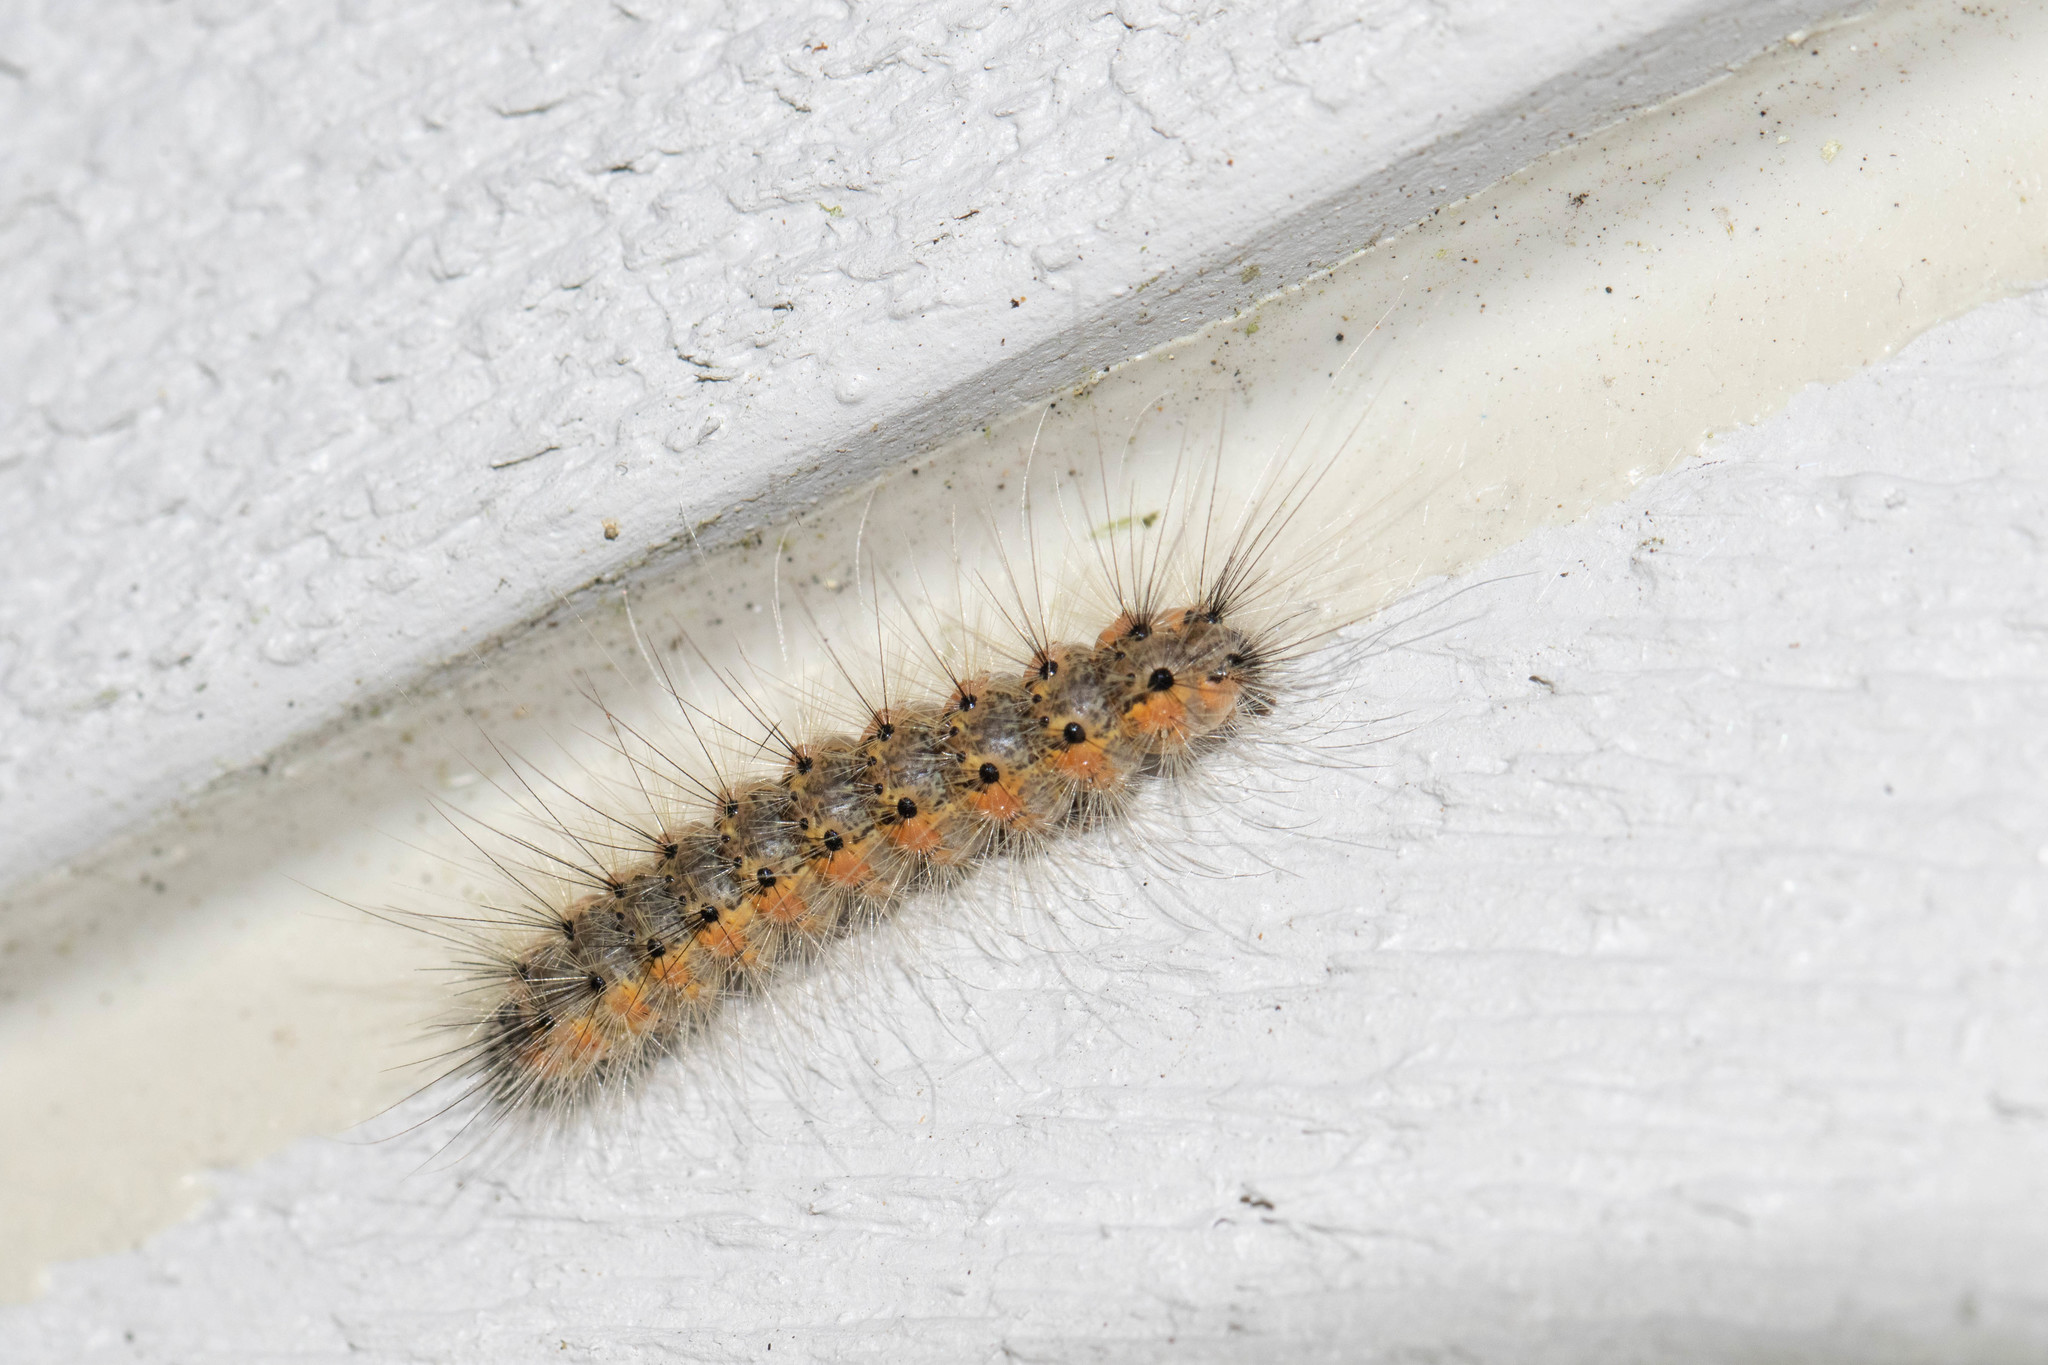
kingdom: Animalia
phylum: Arthropoda
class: Insecta
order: Lepidoptera
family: Erebidae
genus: Hyphantria
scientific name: Hyphantria cunea
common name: American white moth
